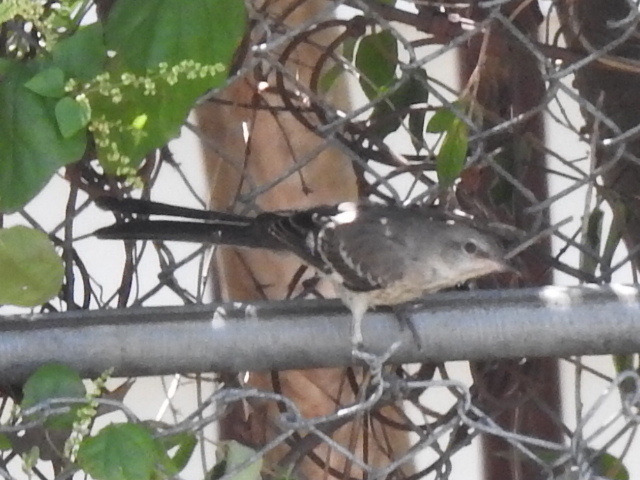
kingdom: Animalia
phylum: Chordata
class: Aves
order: Passeriformes
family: Mimidae
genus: Mimus
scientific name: Mimus polyglottos
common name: Northern mockingbird
